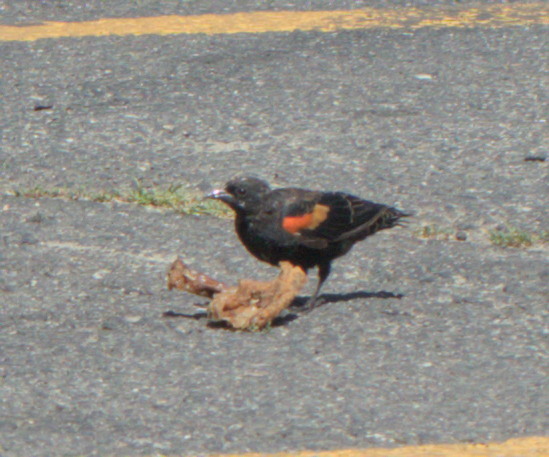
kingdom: Animalia
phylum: Chordata
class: Aves
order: Passeriformes
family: Icteridae
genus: Agelaius
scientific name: Agelaius phoeniceus
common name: Red-winged blackbird
